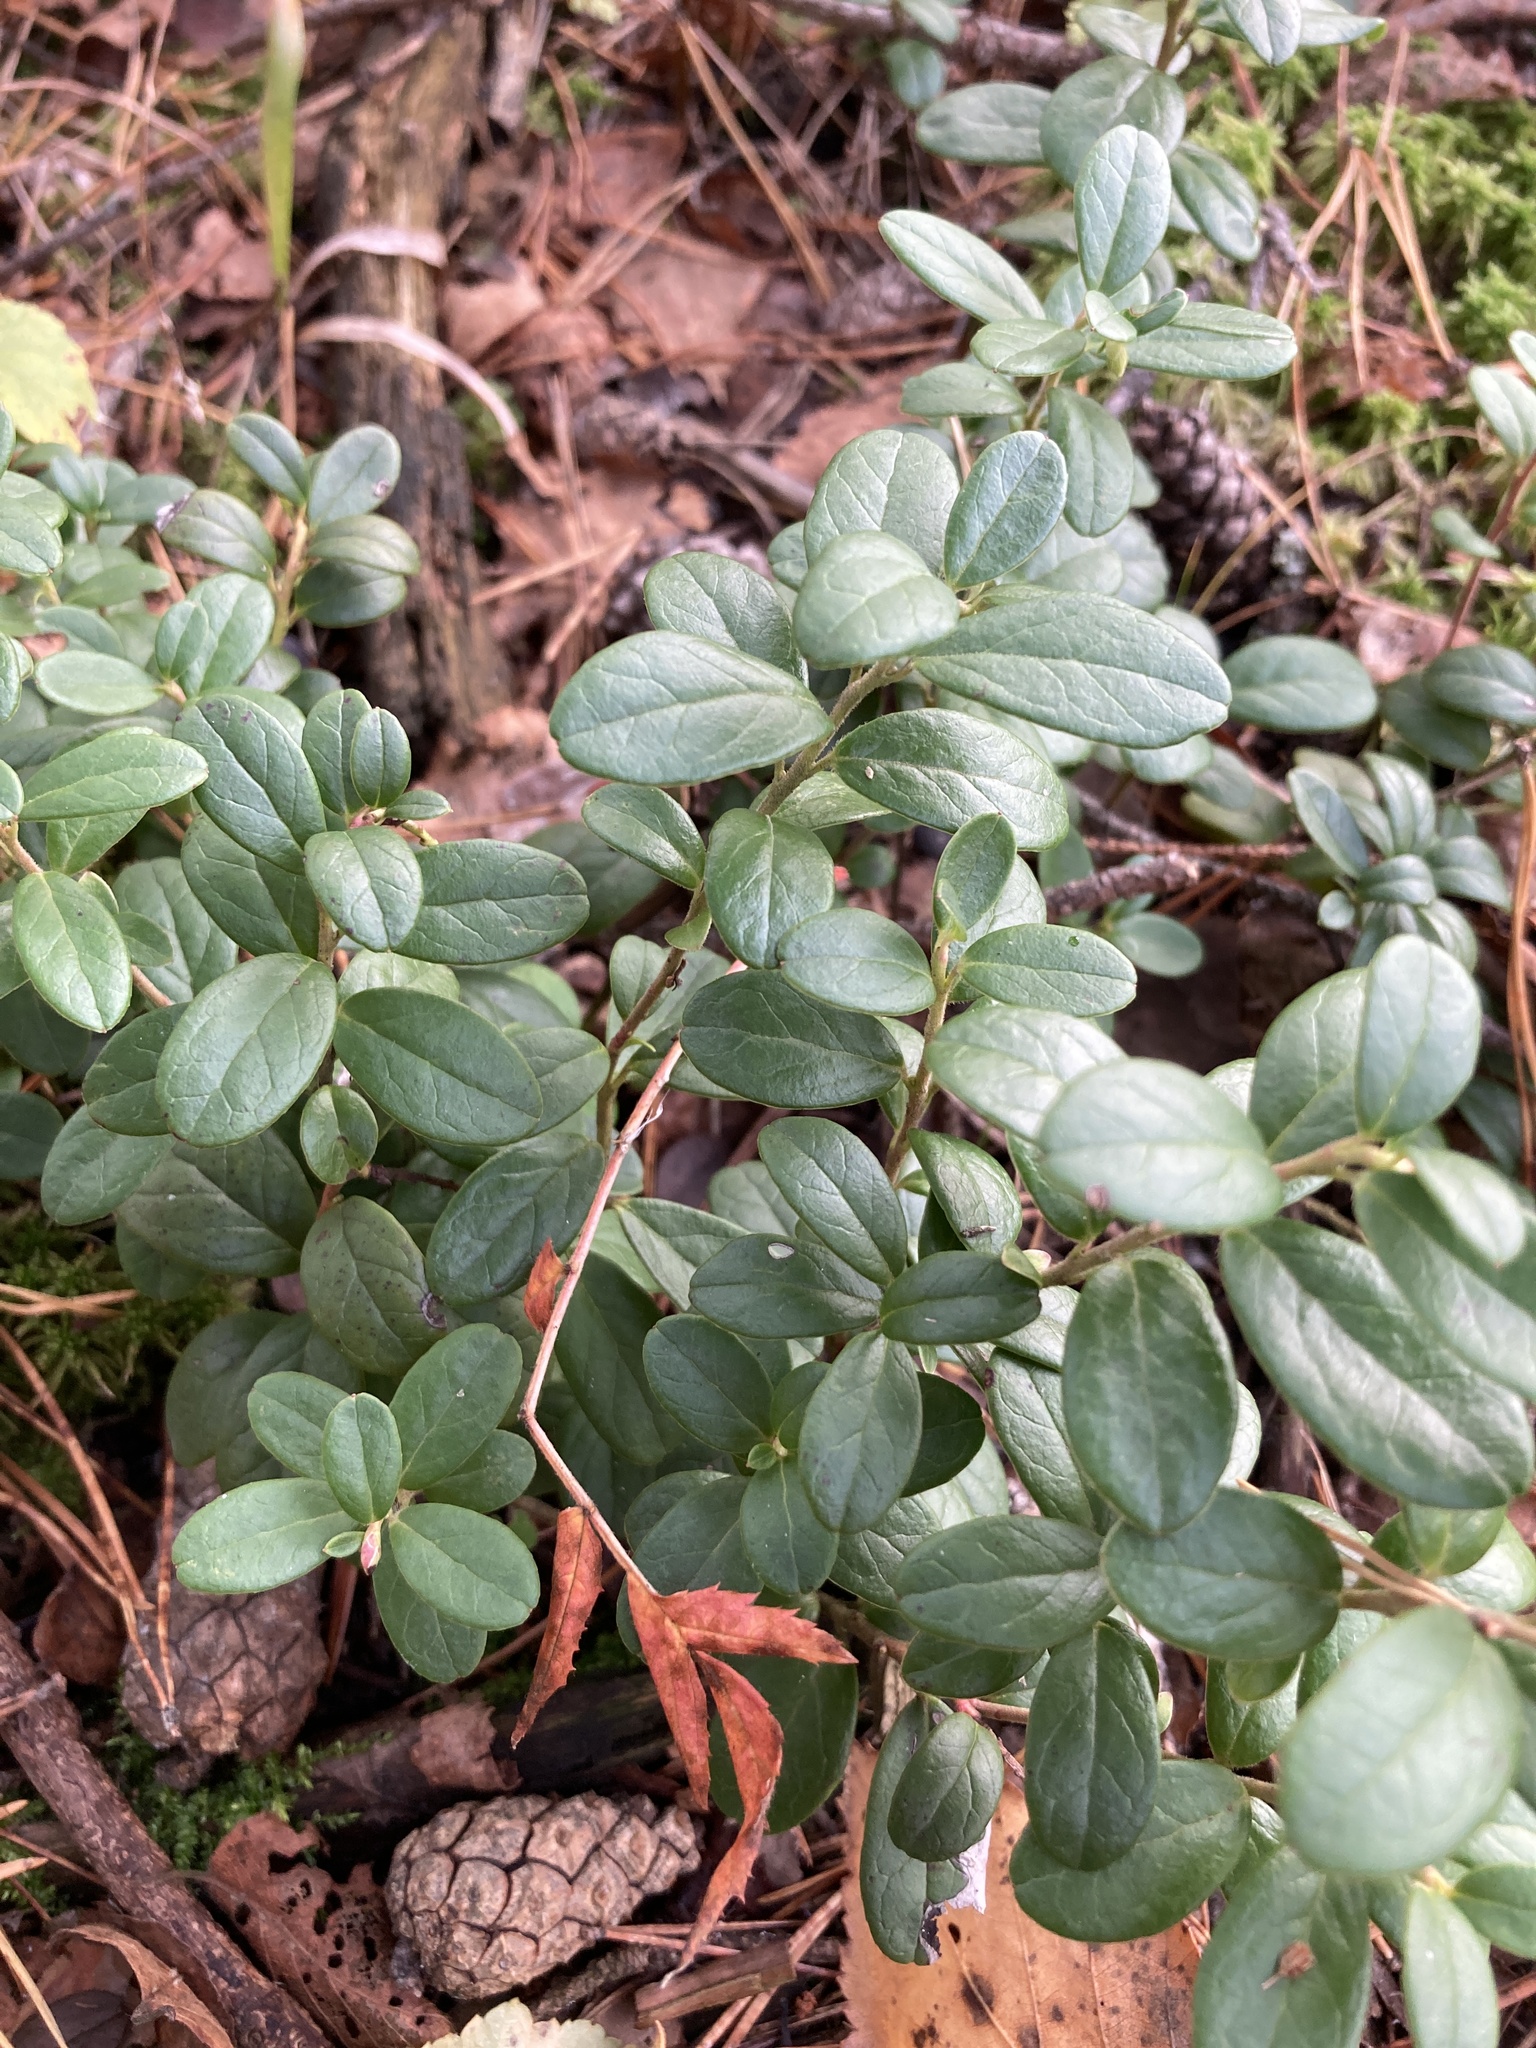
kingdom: Plantae
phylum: Tracheophyta
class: Magnoliopsida
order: Ericales
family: Ericaceae
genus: Vaccinium
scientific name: Vaccinium vitis-idaea
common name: Cowberry
